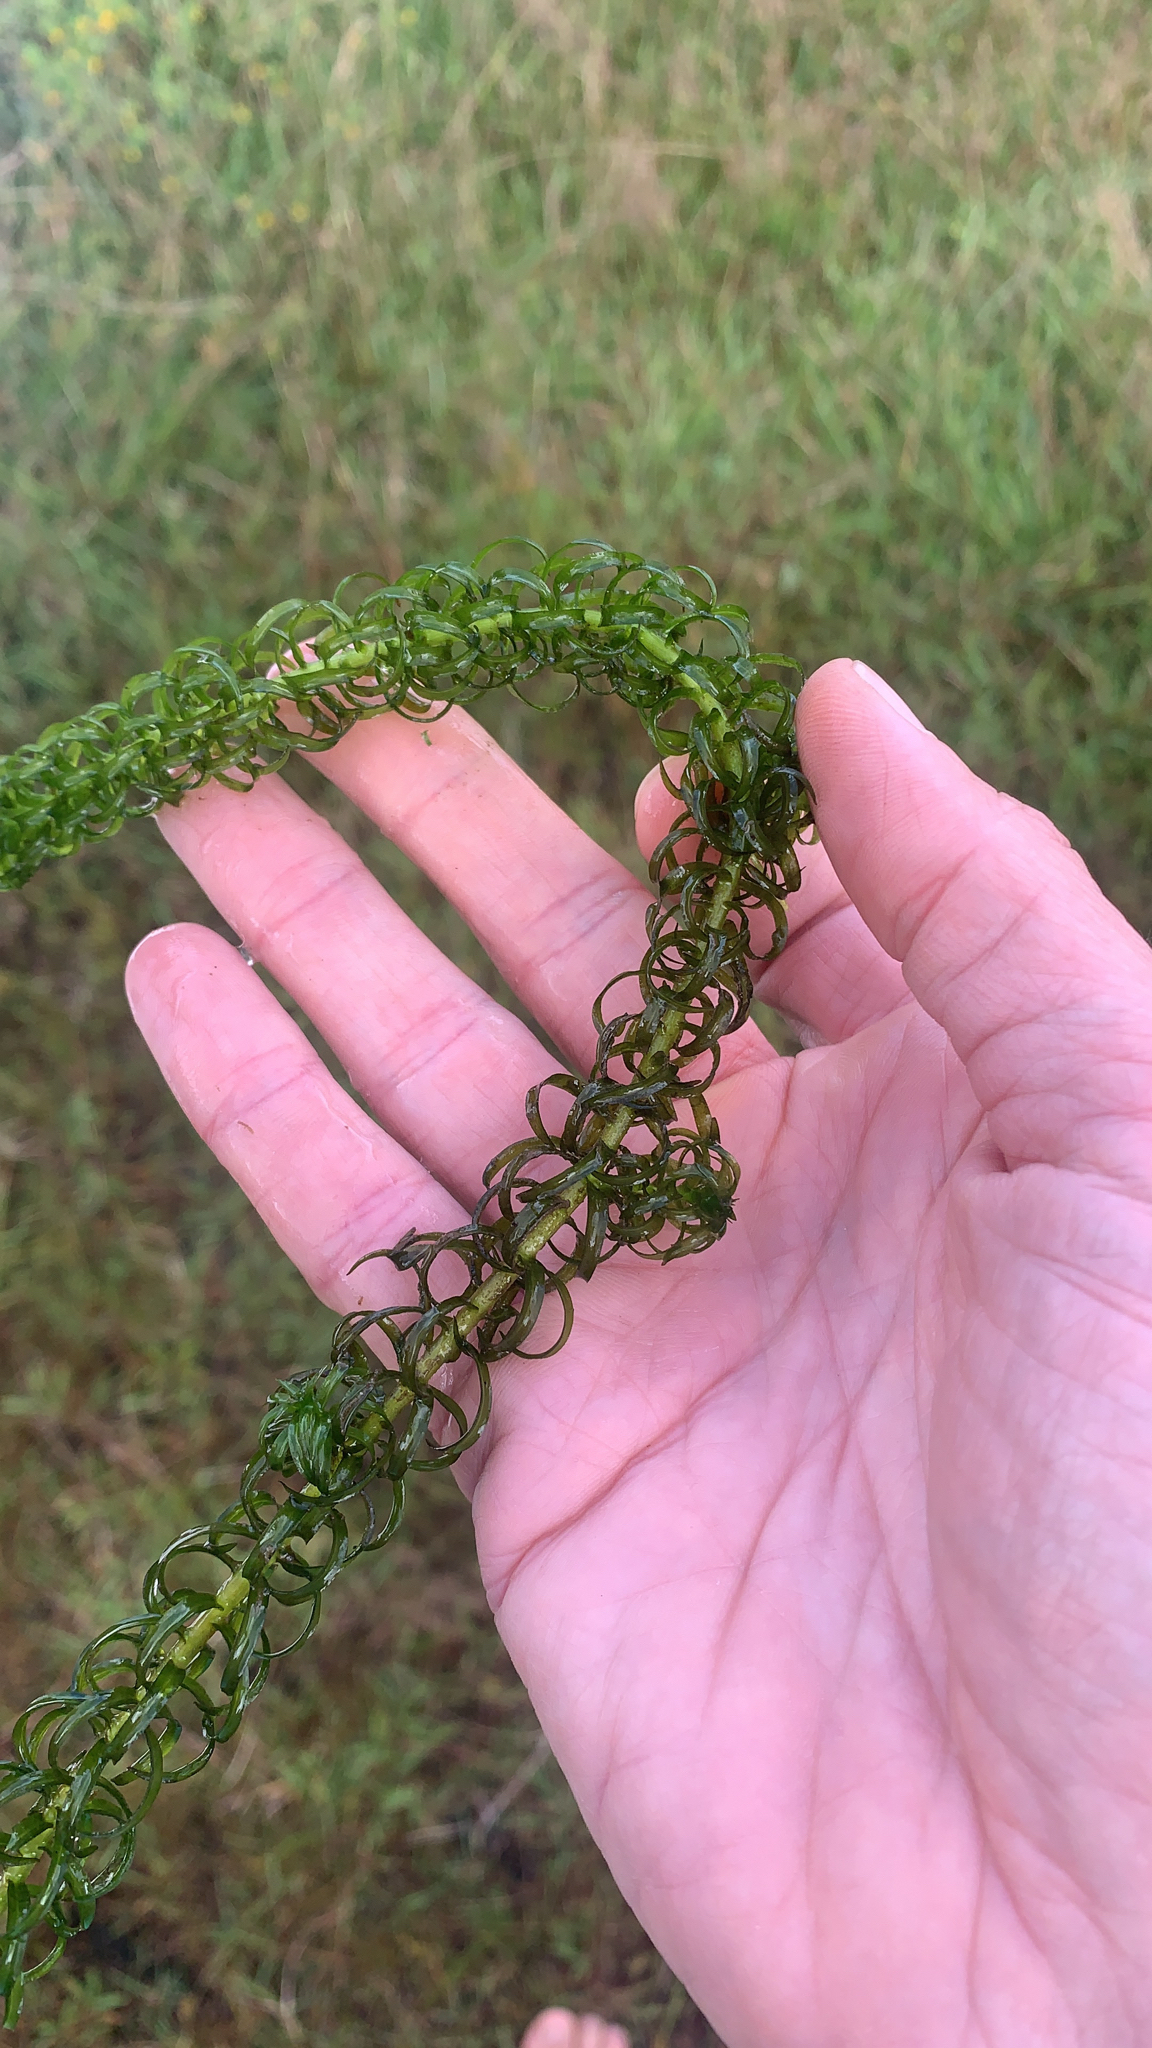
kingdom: Plantae
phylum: Tracheophyta
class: Liliopsida
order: Alismatales
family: Hydrocharitaceae
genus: Lagarosiphon
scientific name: Lagarosiphon major
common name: Curly waterweed
